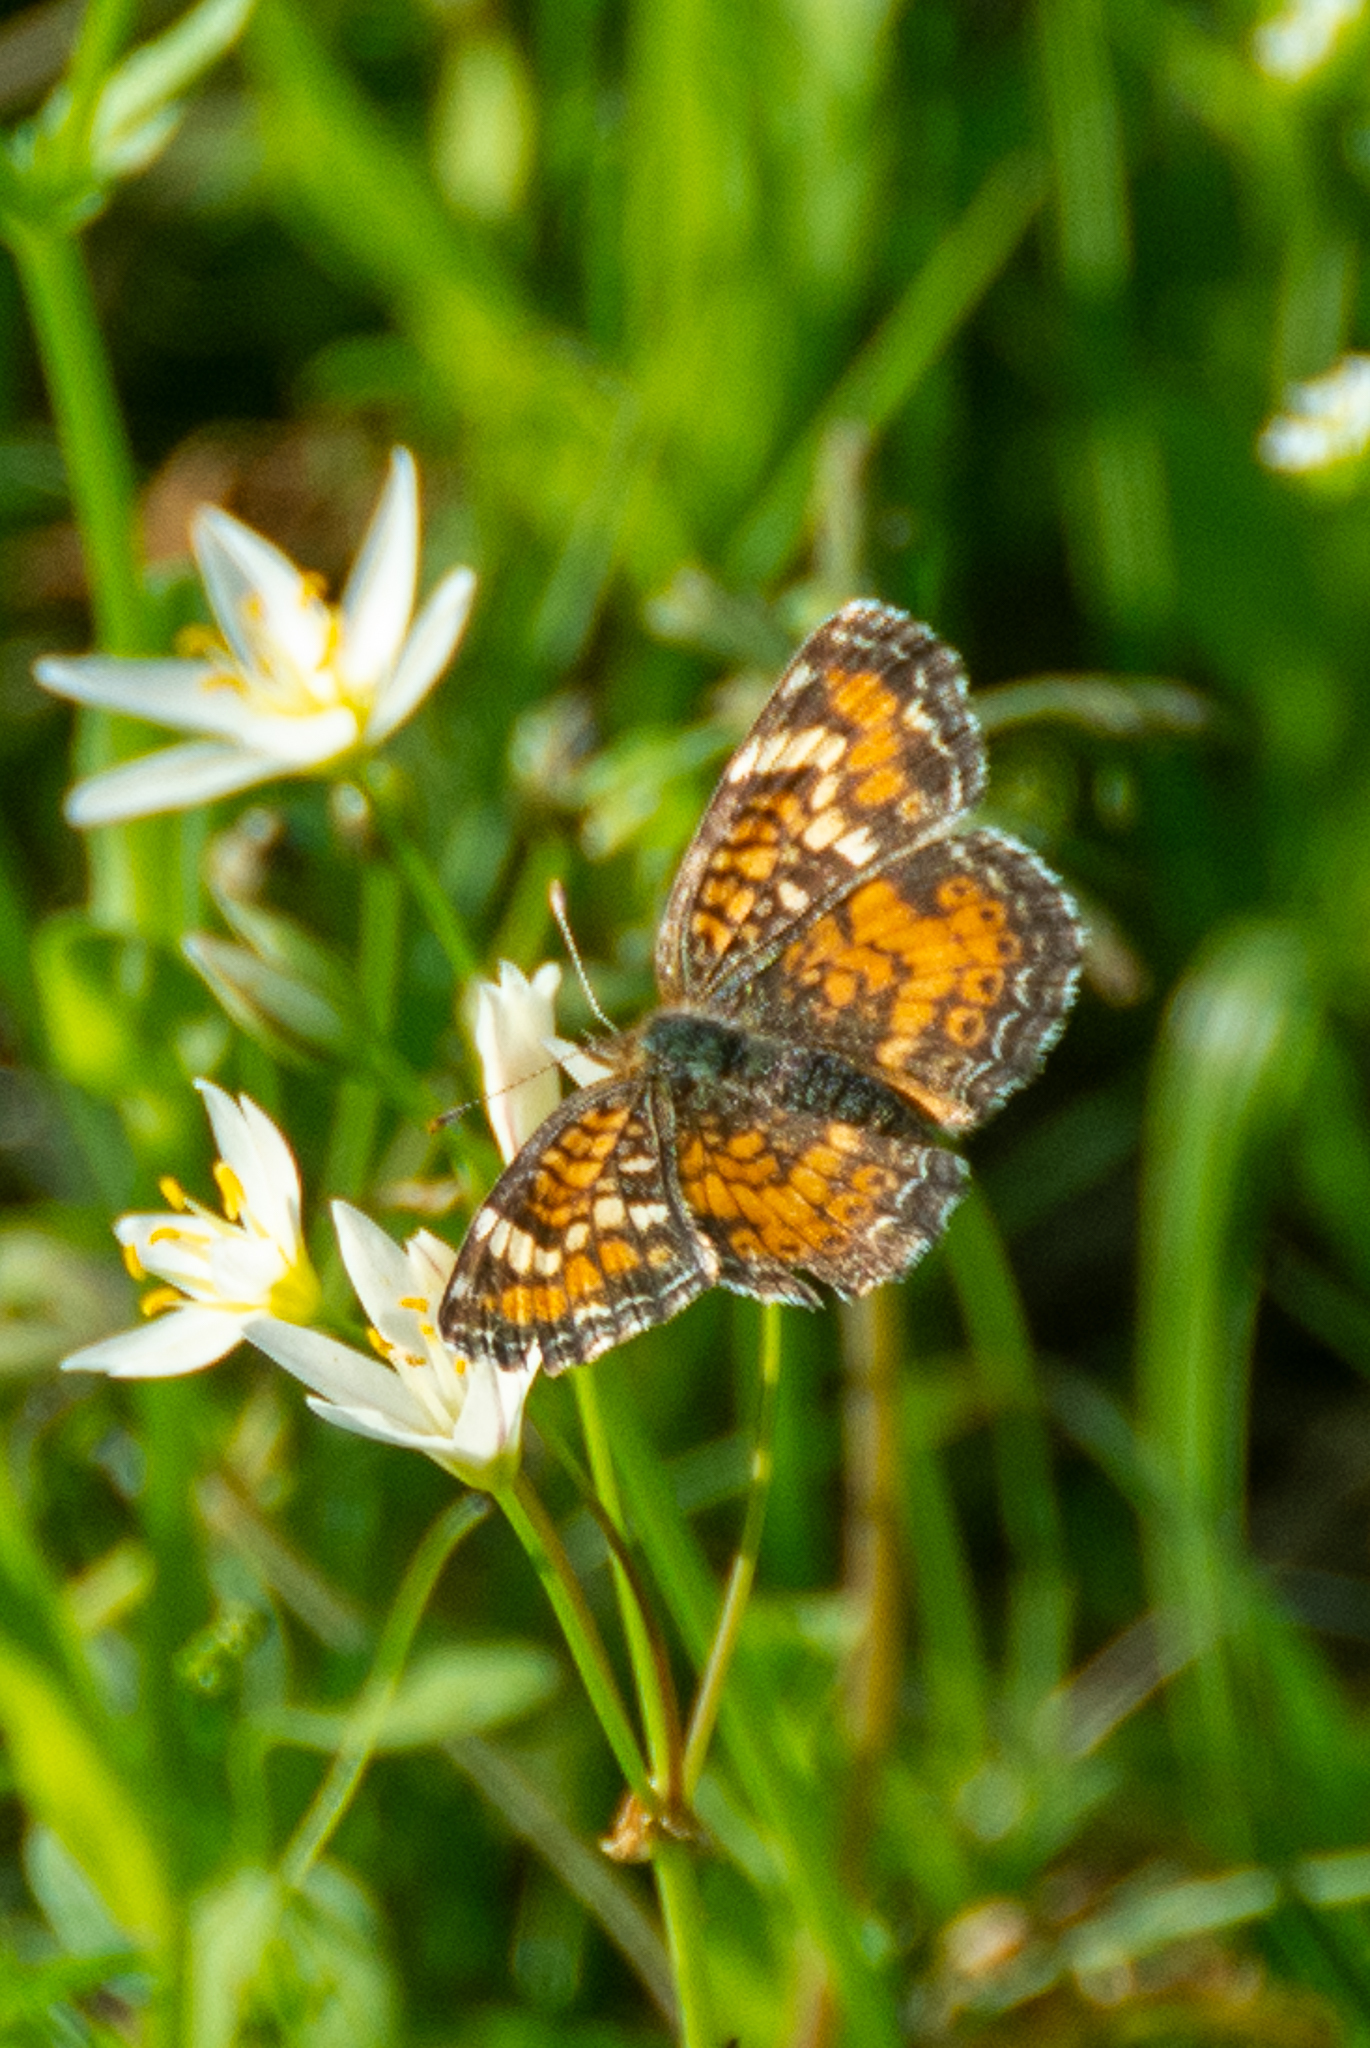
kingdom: Animalia
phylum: Arthropoda
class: Insecta
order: Lepidoptera
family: Nymphalidae
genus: Phyciodes
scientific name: Phyciodes phaon
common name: Phaon crescent
